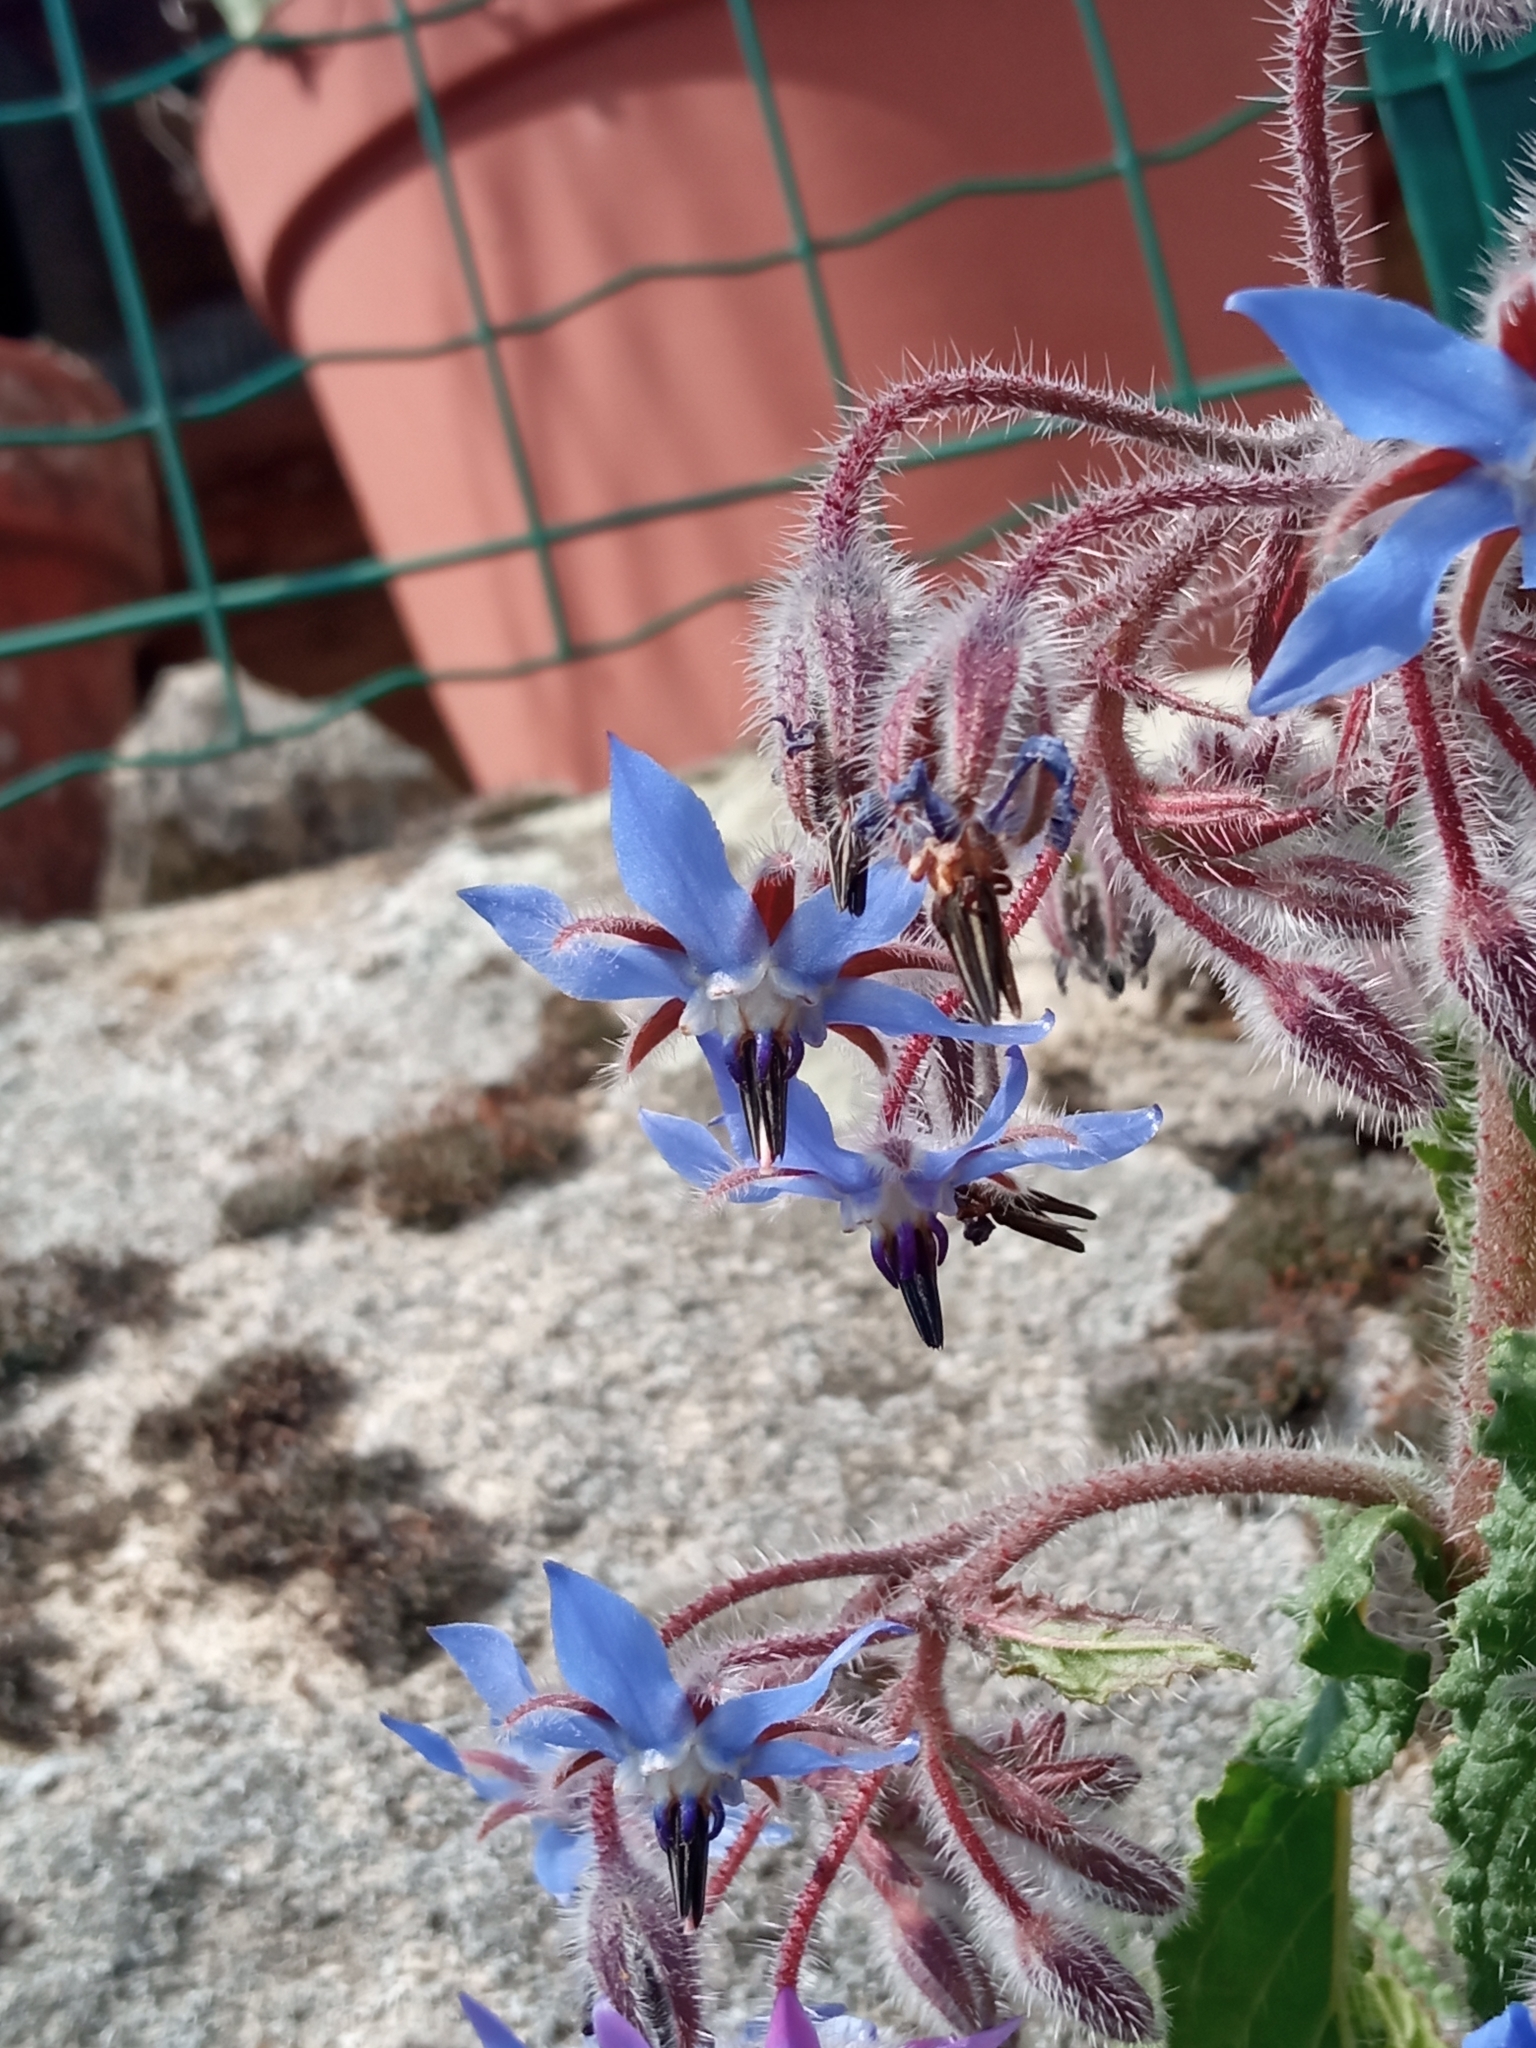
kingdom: Plantae
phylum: Tracheophyta
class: Magnoliopsida
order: Boraginales
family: Boraginaceae
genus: Borago
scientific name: Borago officinalis
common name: Borage
